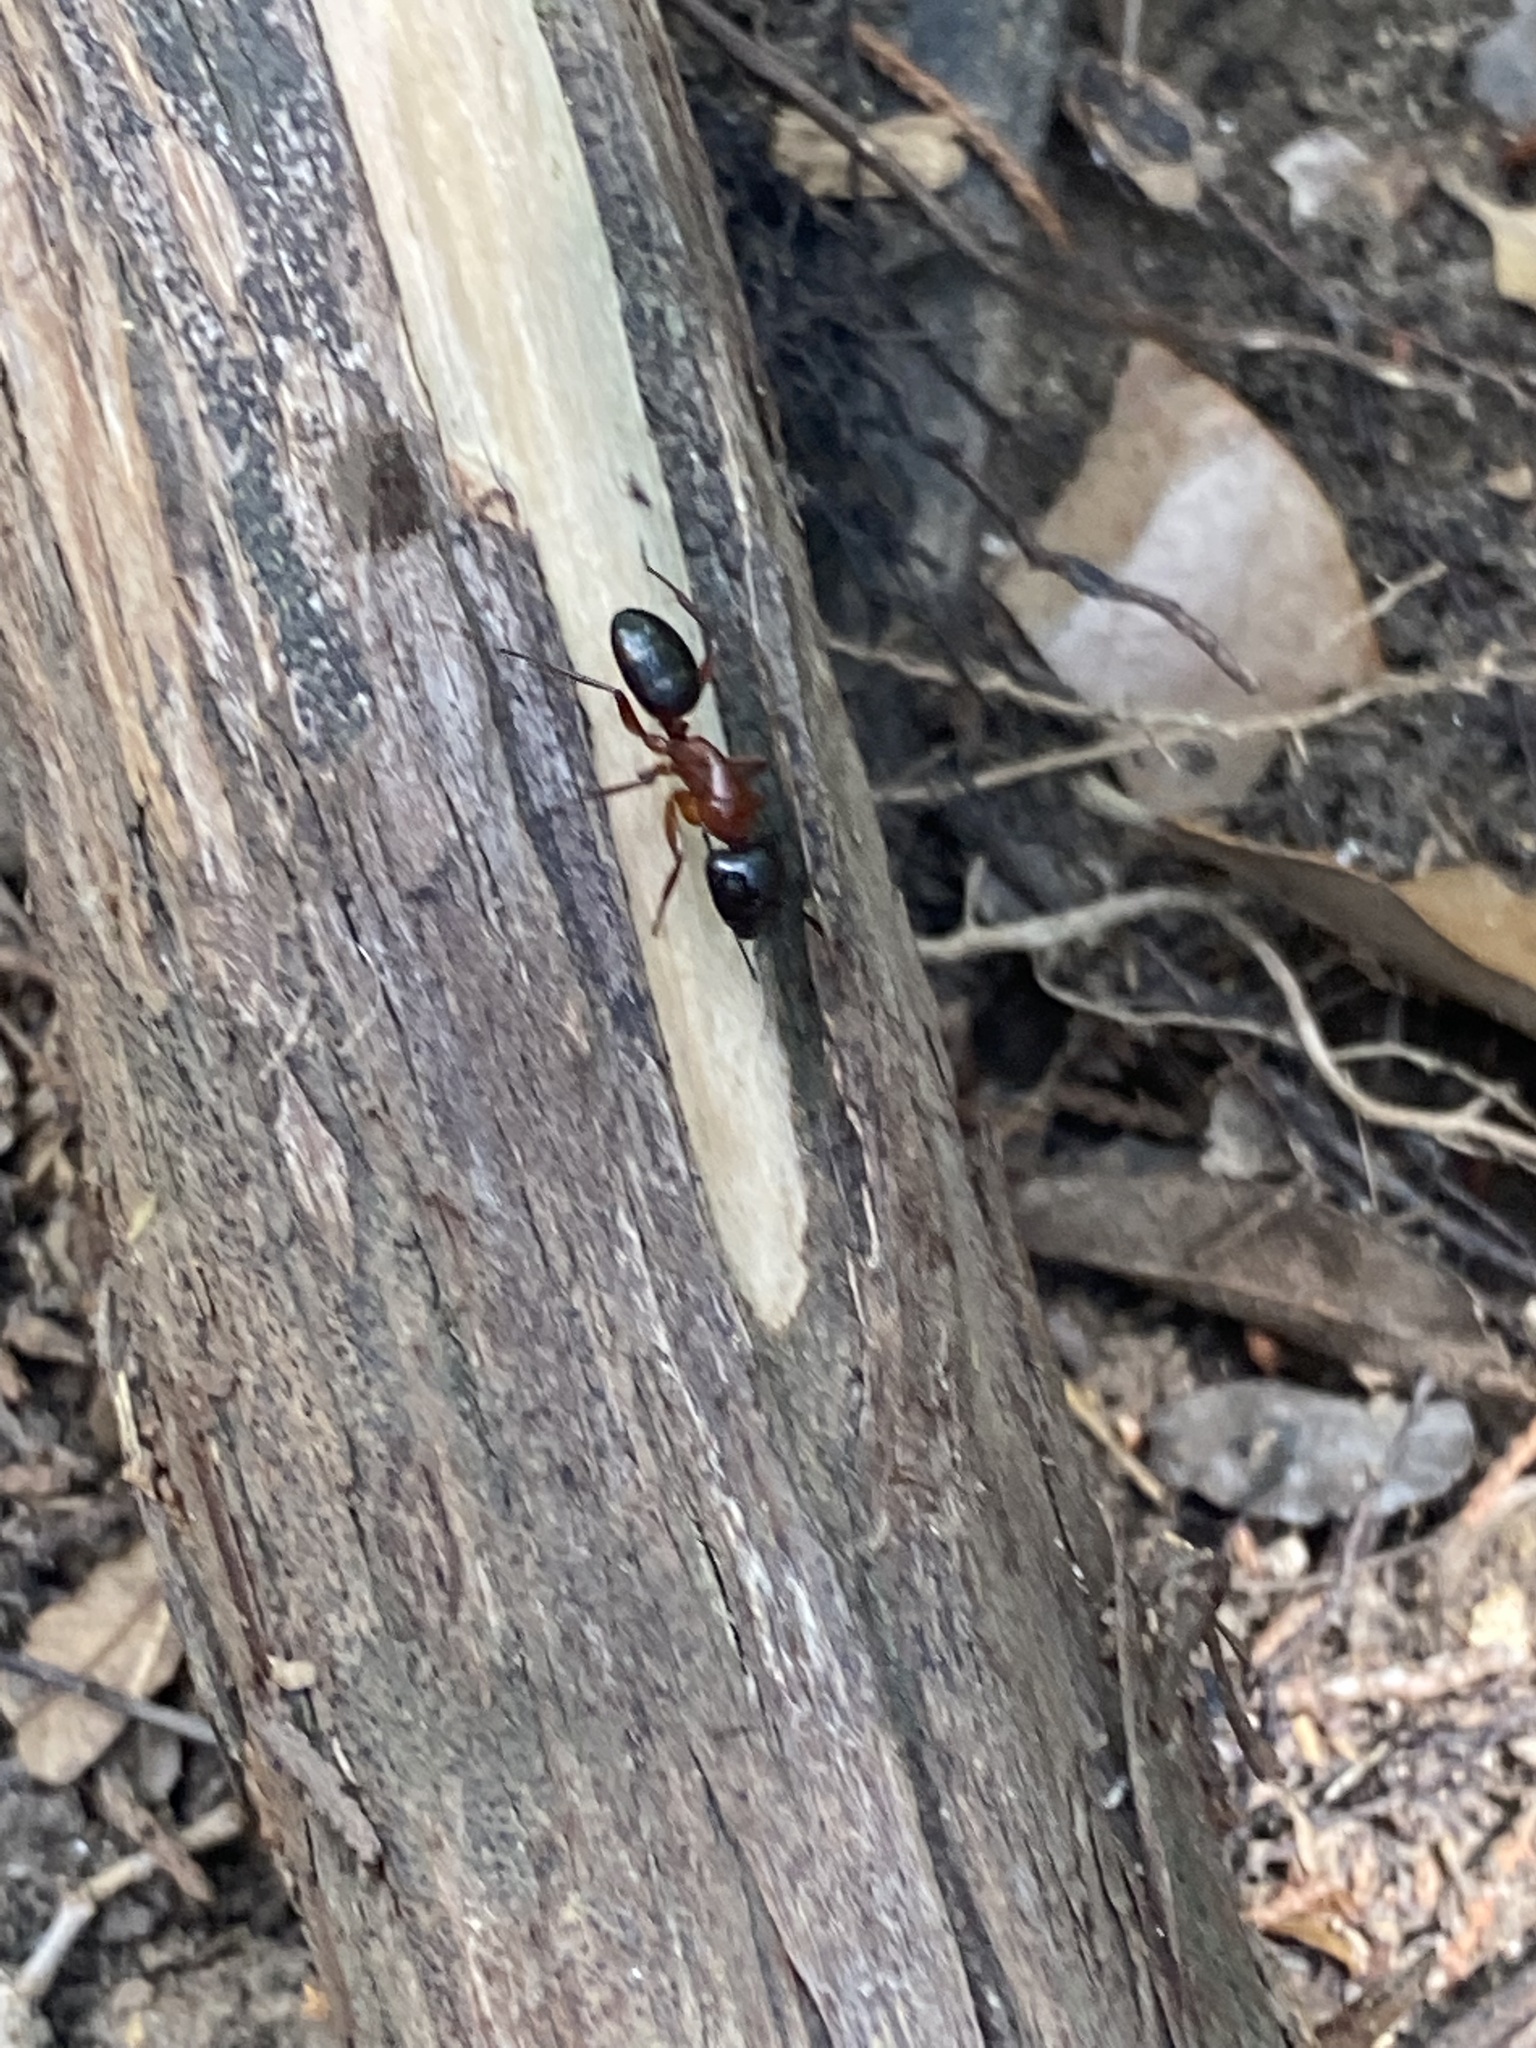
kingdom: Animalia
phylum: Arthropoda
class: Insecta
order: Hymenoptera
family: Formicidae
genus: Camponotus
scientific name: Camponotus texanus
